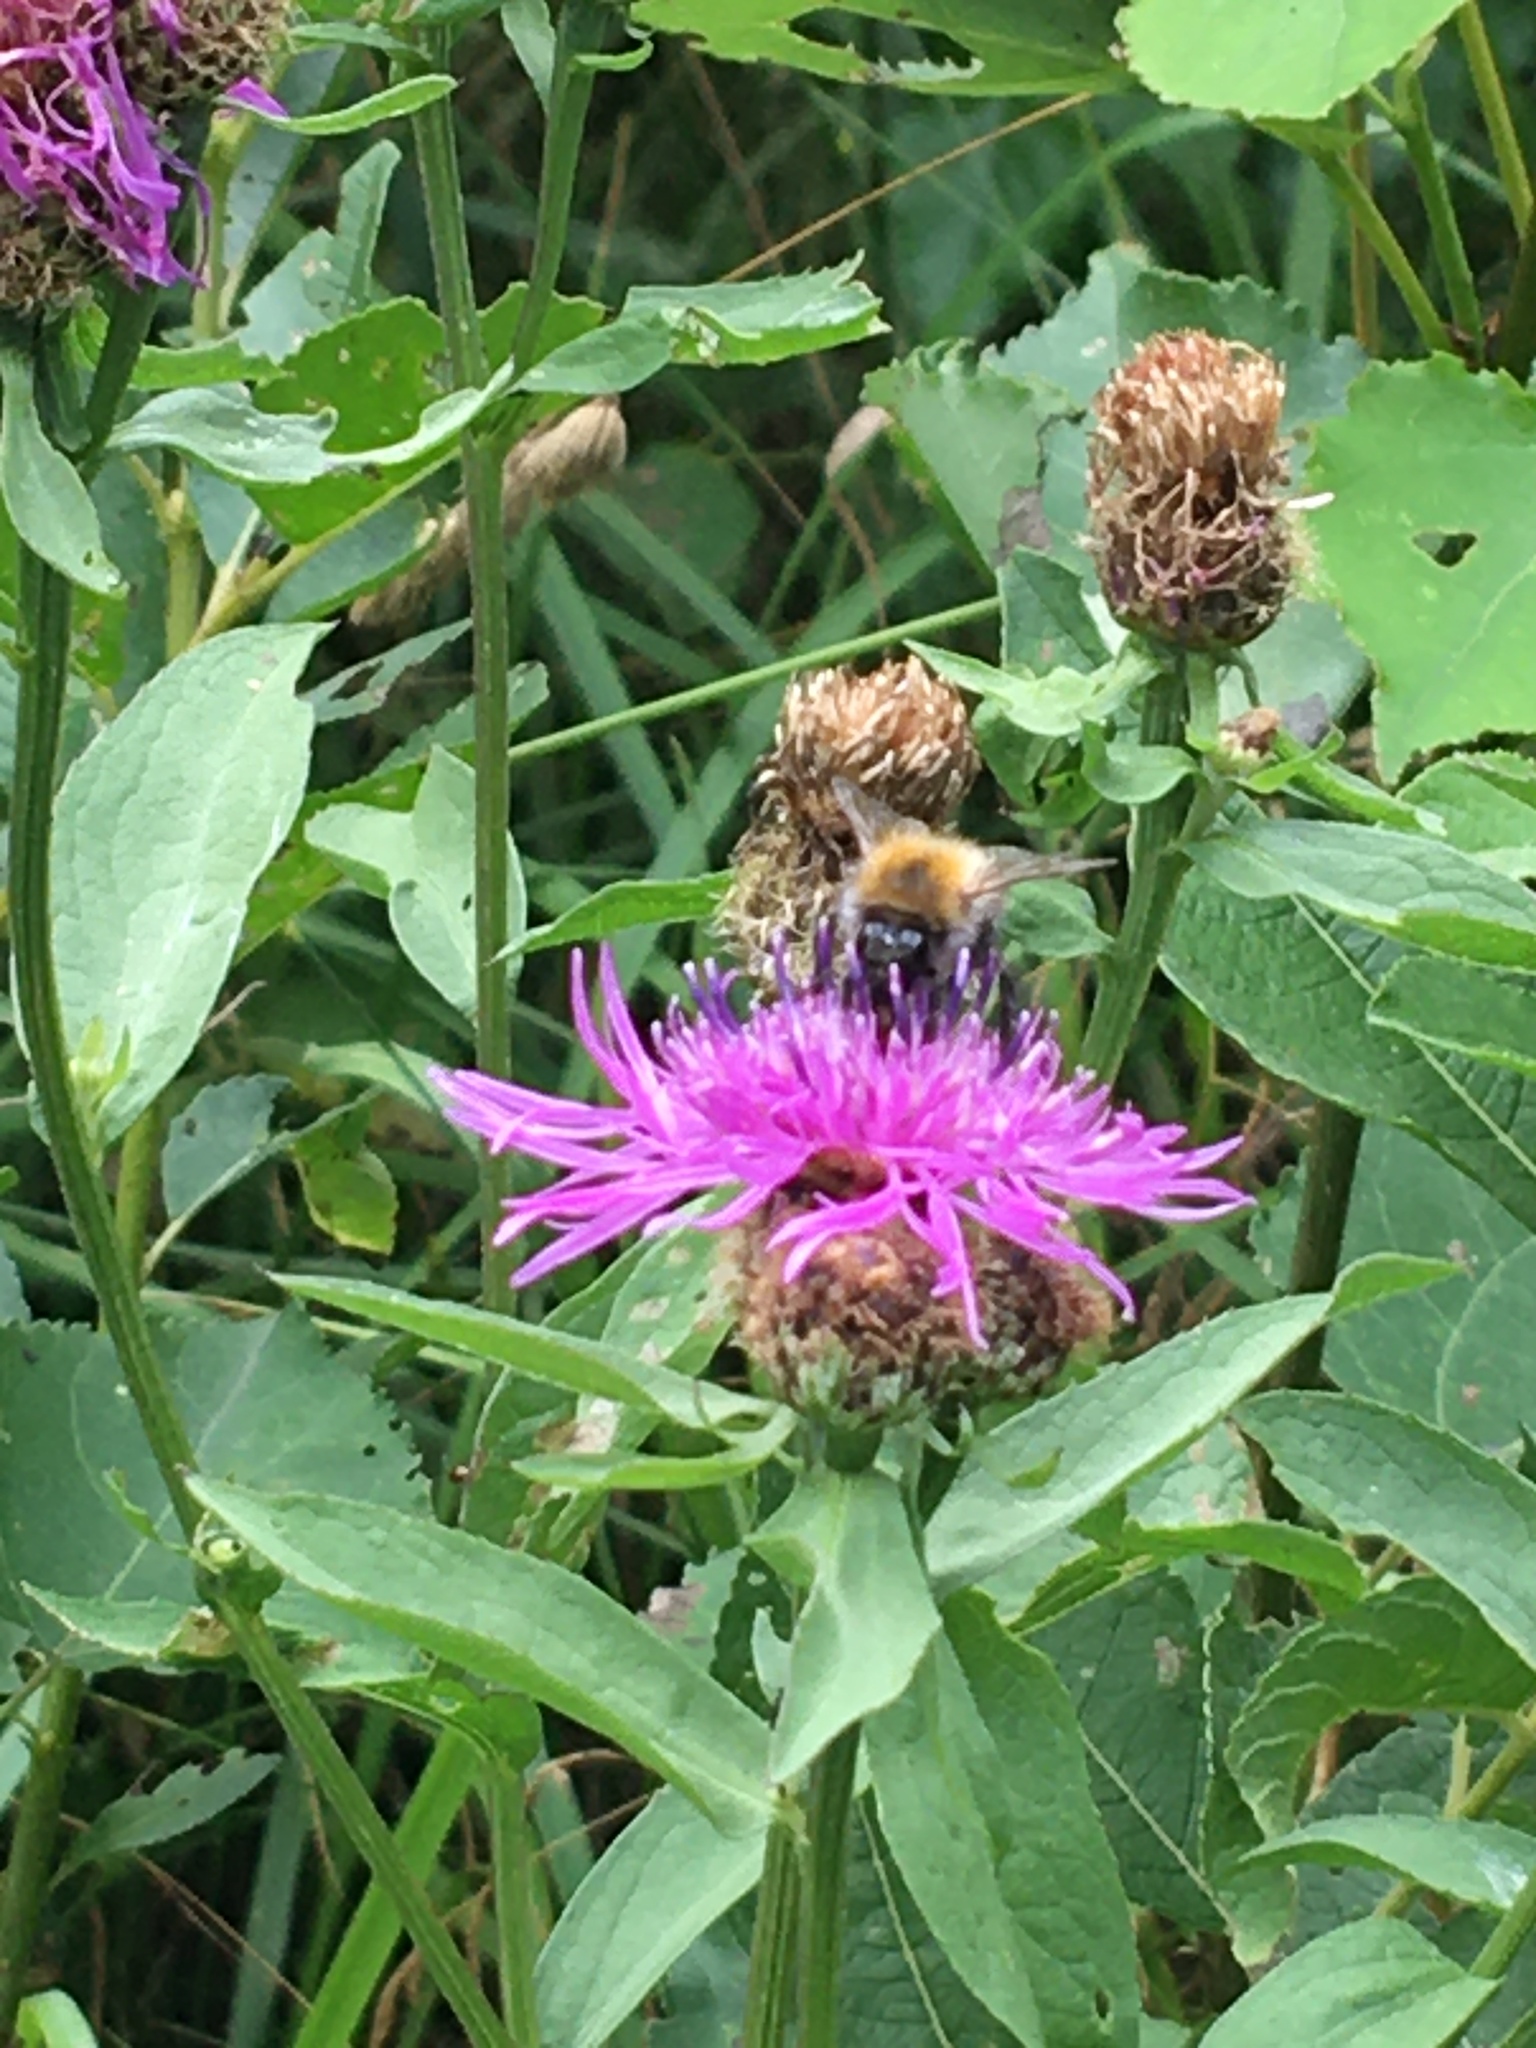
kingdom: Animalia
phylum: Arthropoda
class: Insecta
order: Hymenoptera
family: Apidae
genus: Bombus
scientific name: Bombus
